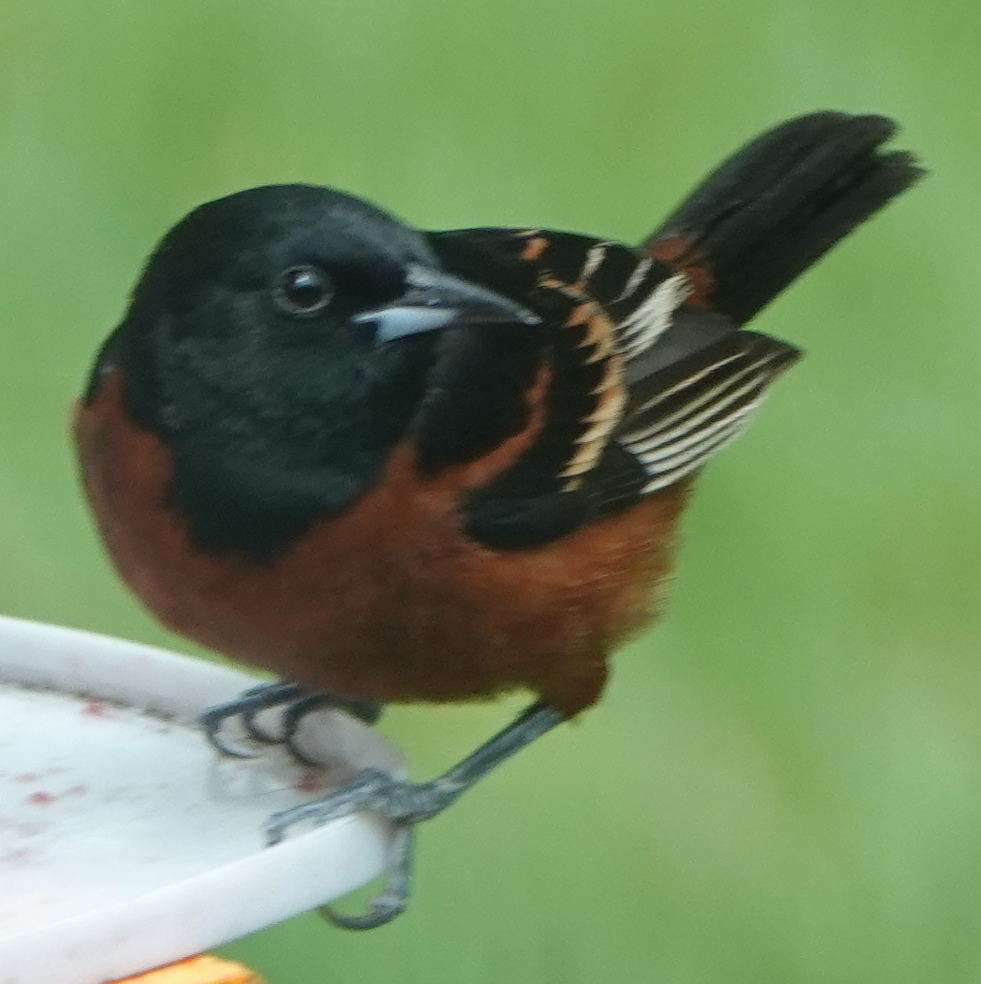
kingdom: Animalia
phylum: Chordata
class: Aves
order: Passeriformes
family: Icteridae
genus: Icterus
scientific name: Icterus spurius
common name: Orchard oriole
